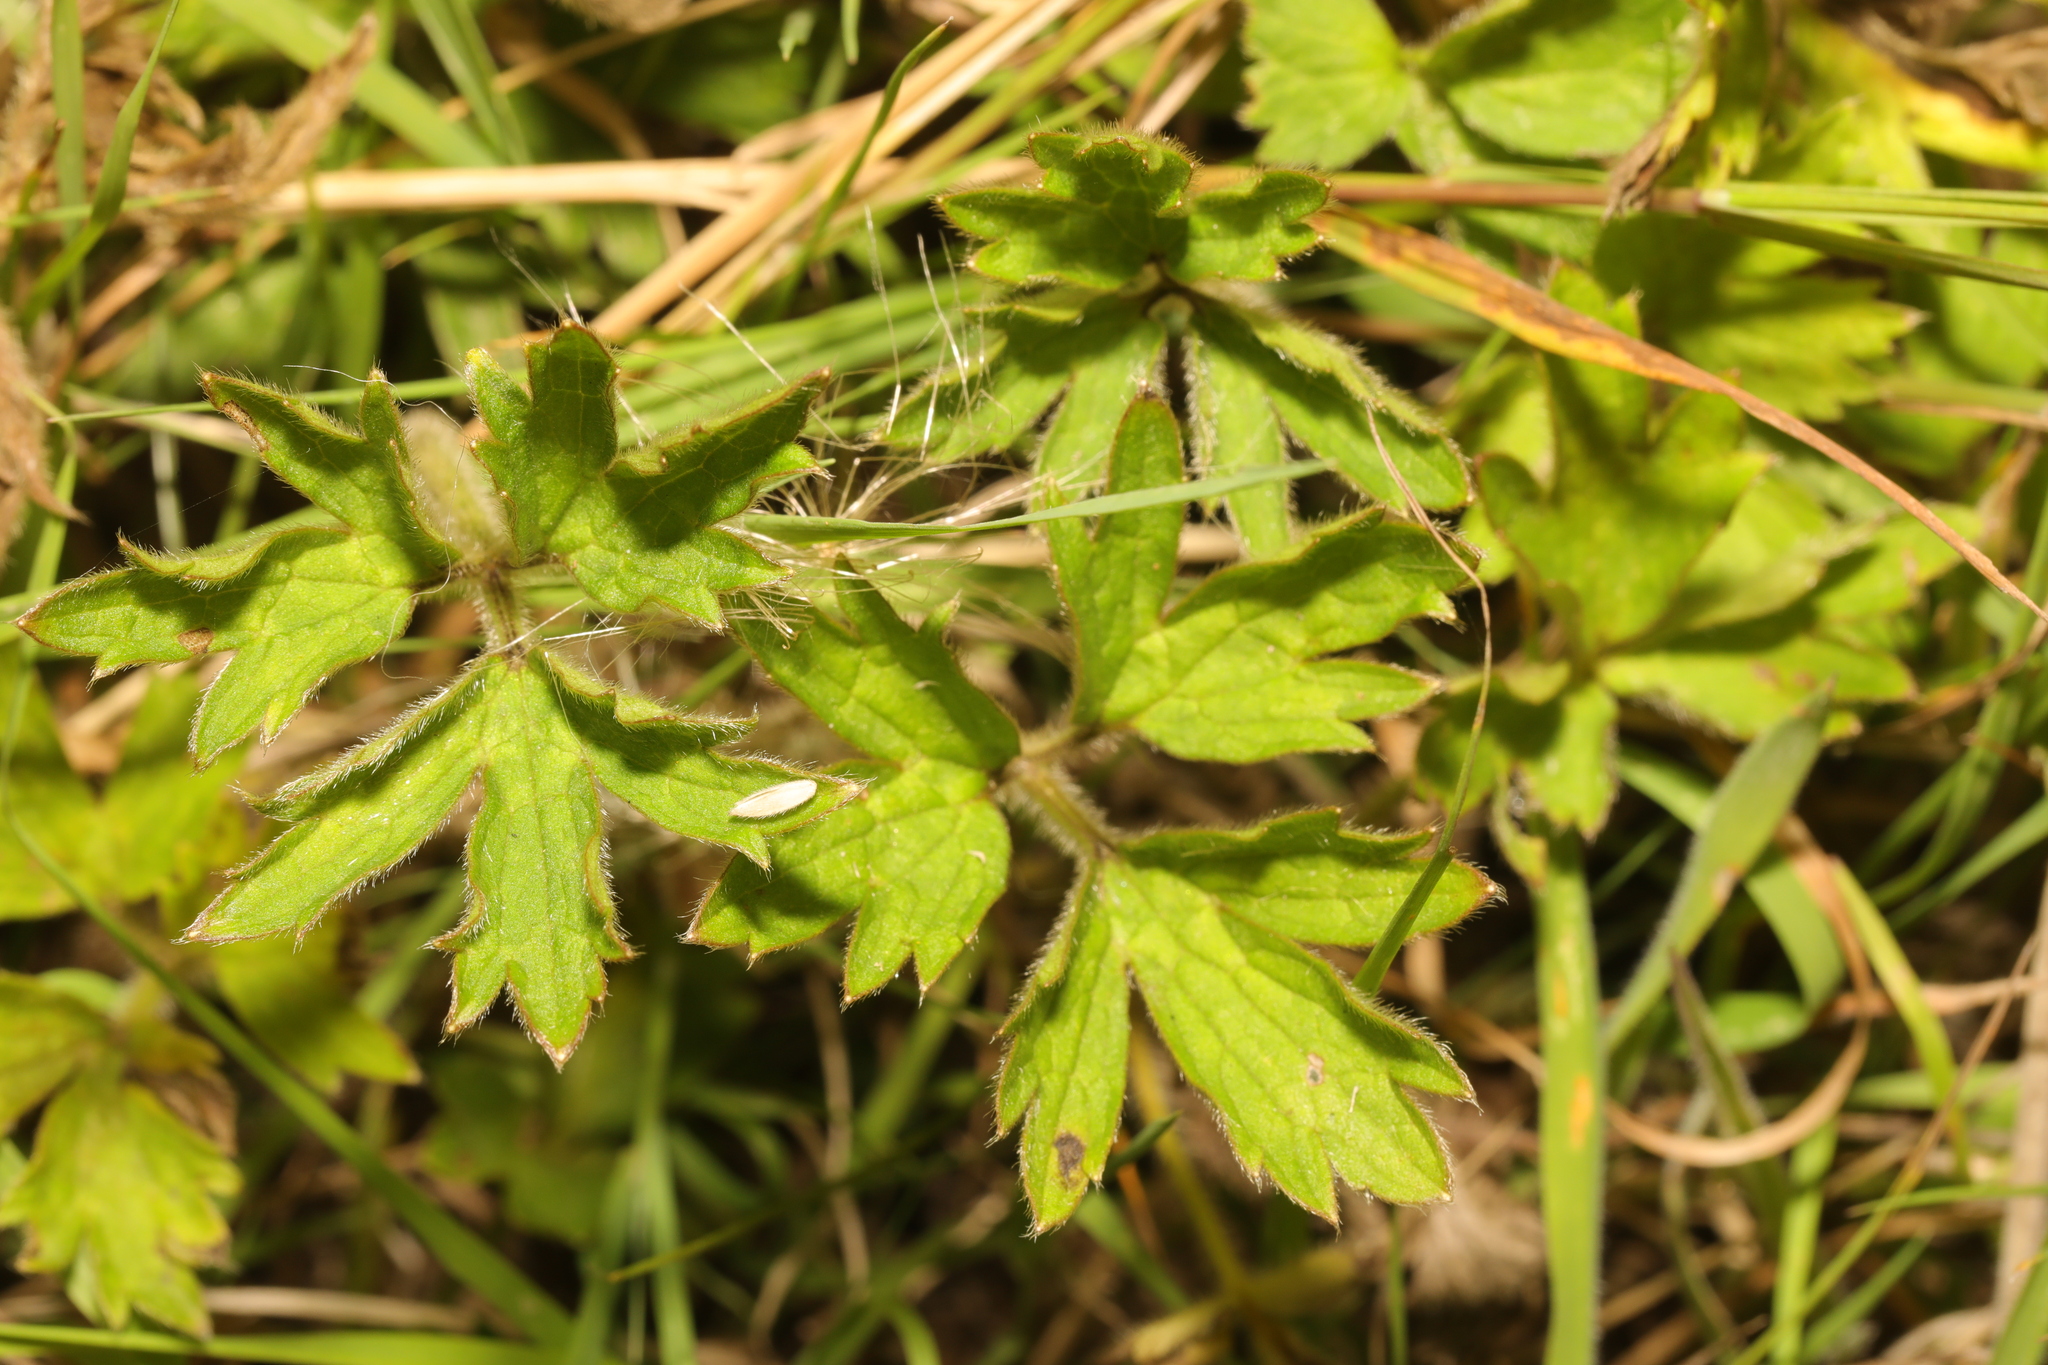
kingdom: Plantae
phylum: Tracheophyta
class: Magnoliopsida
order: Ranunculales
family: Ranunculaceae
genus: Ranunculus
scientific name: Ranunculus repens
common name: Creeping buttercup
